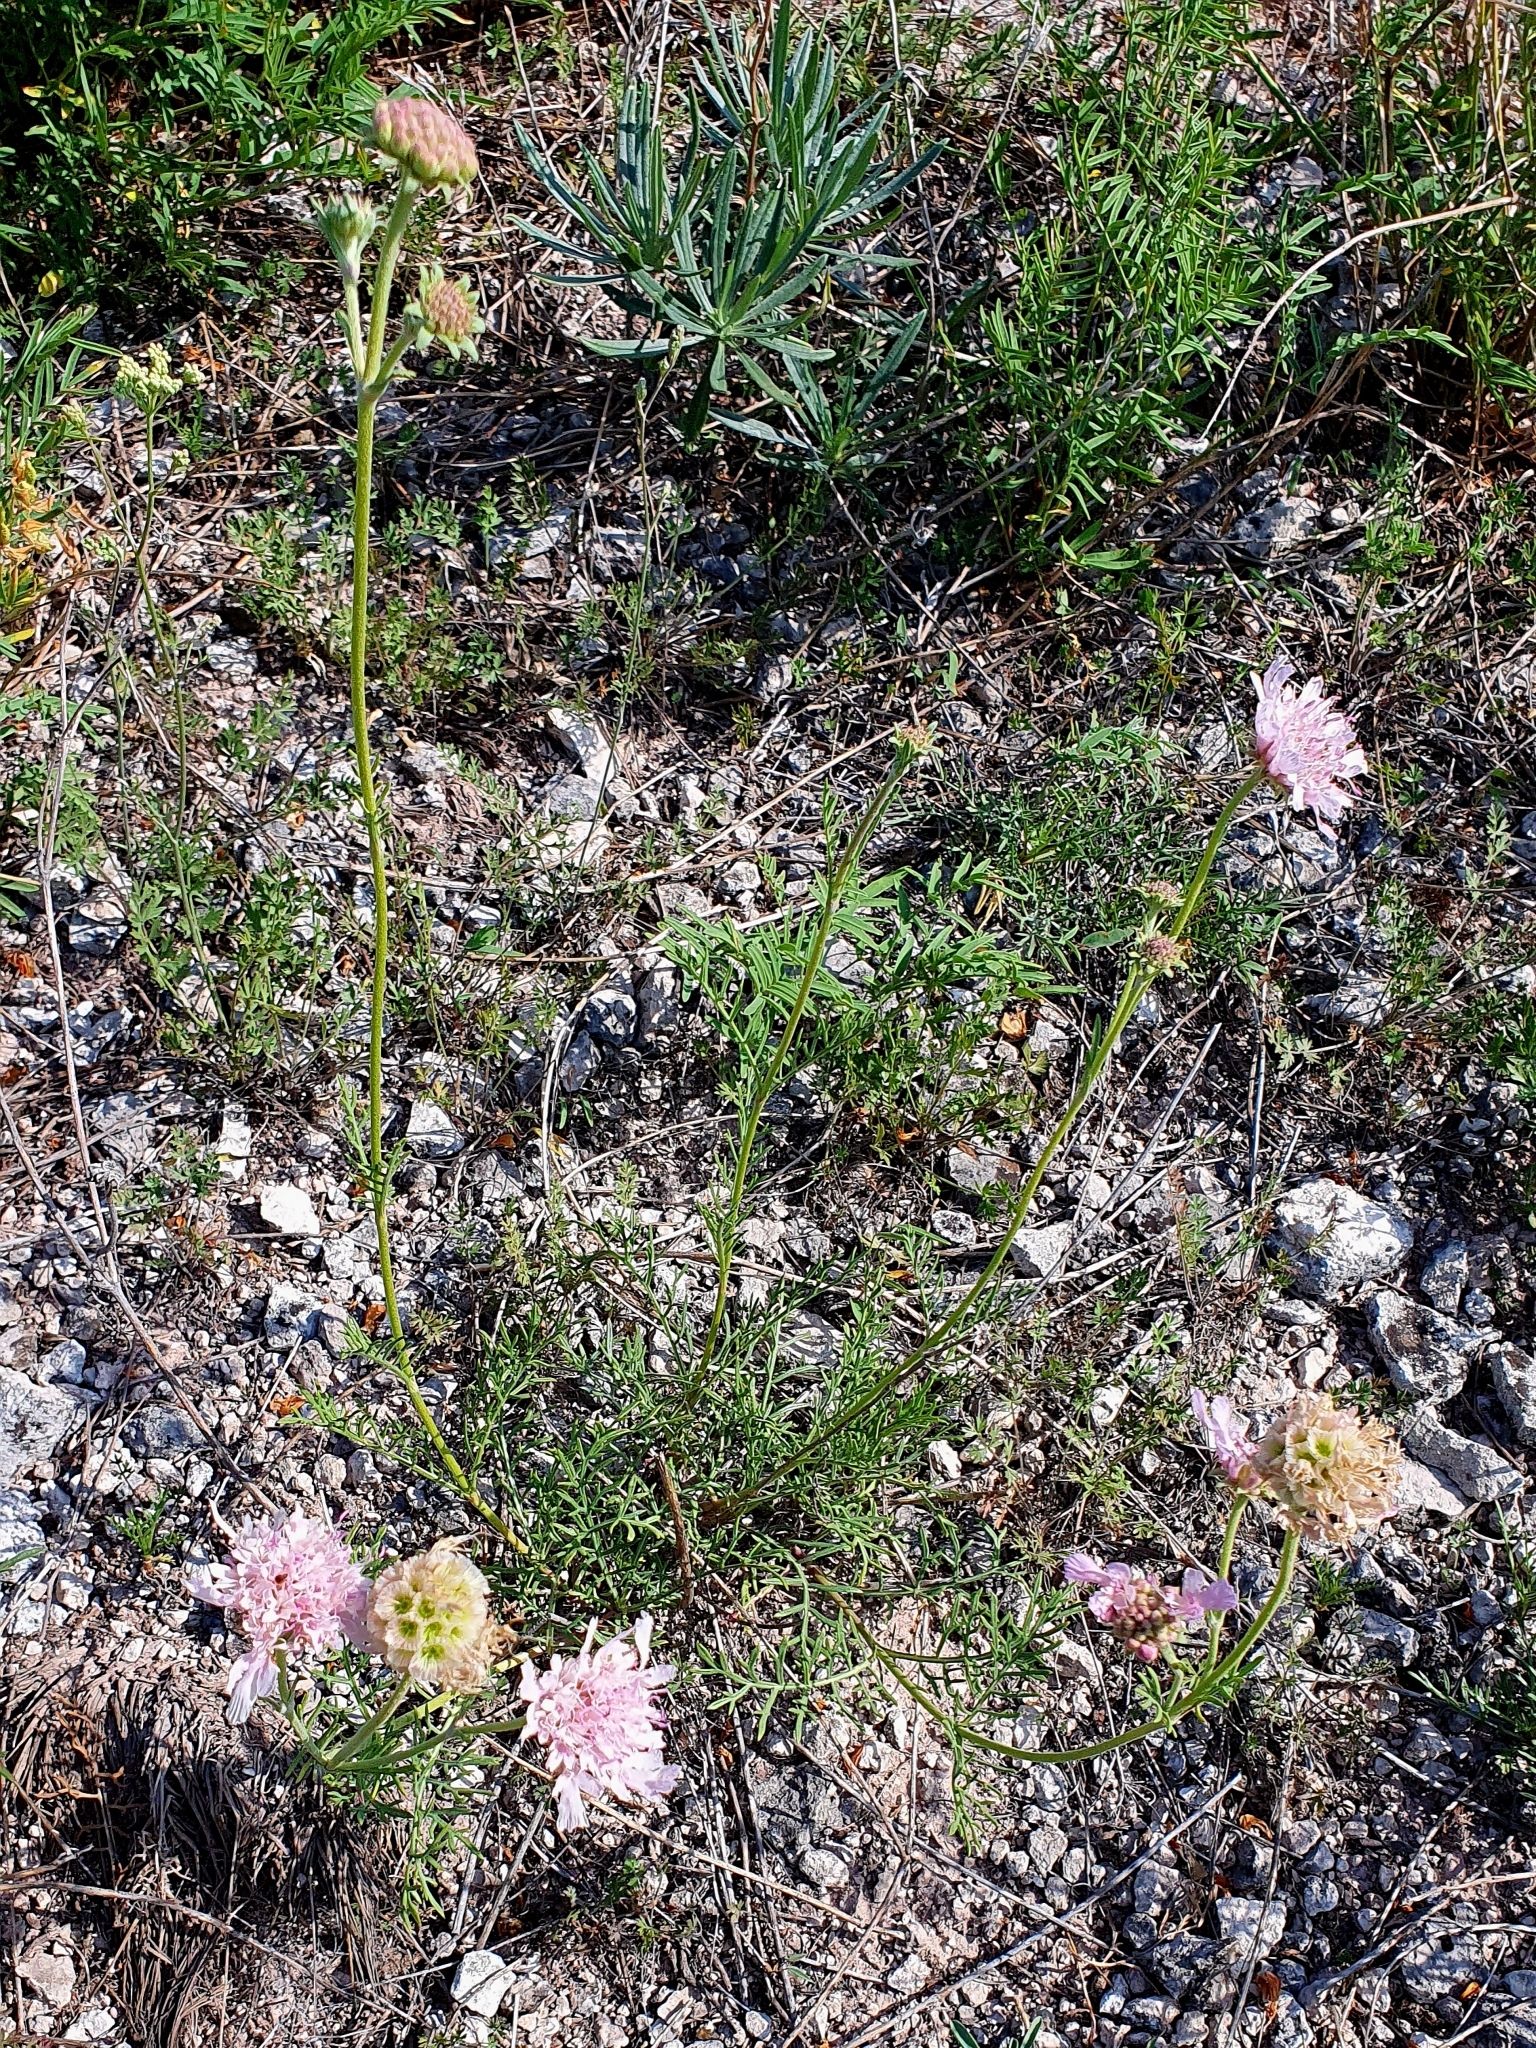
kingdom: Plantae
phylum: Tracheophyta
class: Magnoliopsida
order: Dipsacales
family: Caprifoliaceae
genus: Lomelosia
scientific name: Lomelosia isetensis
